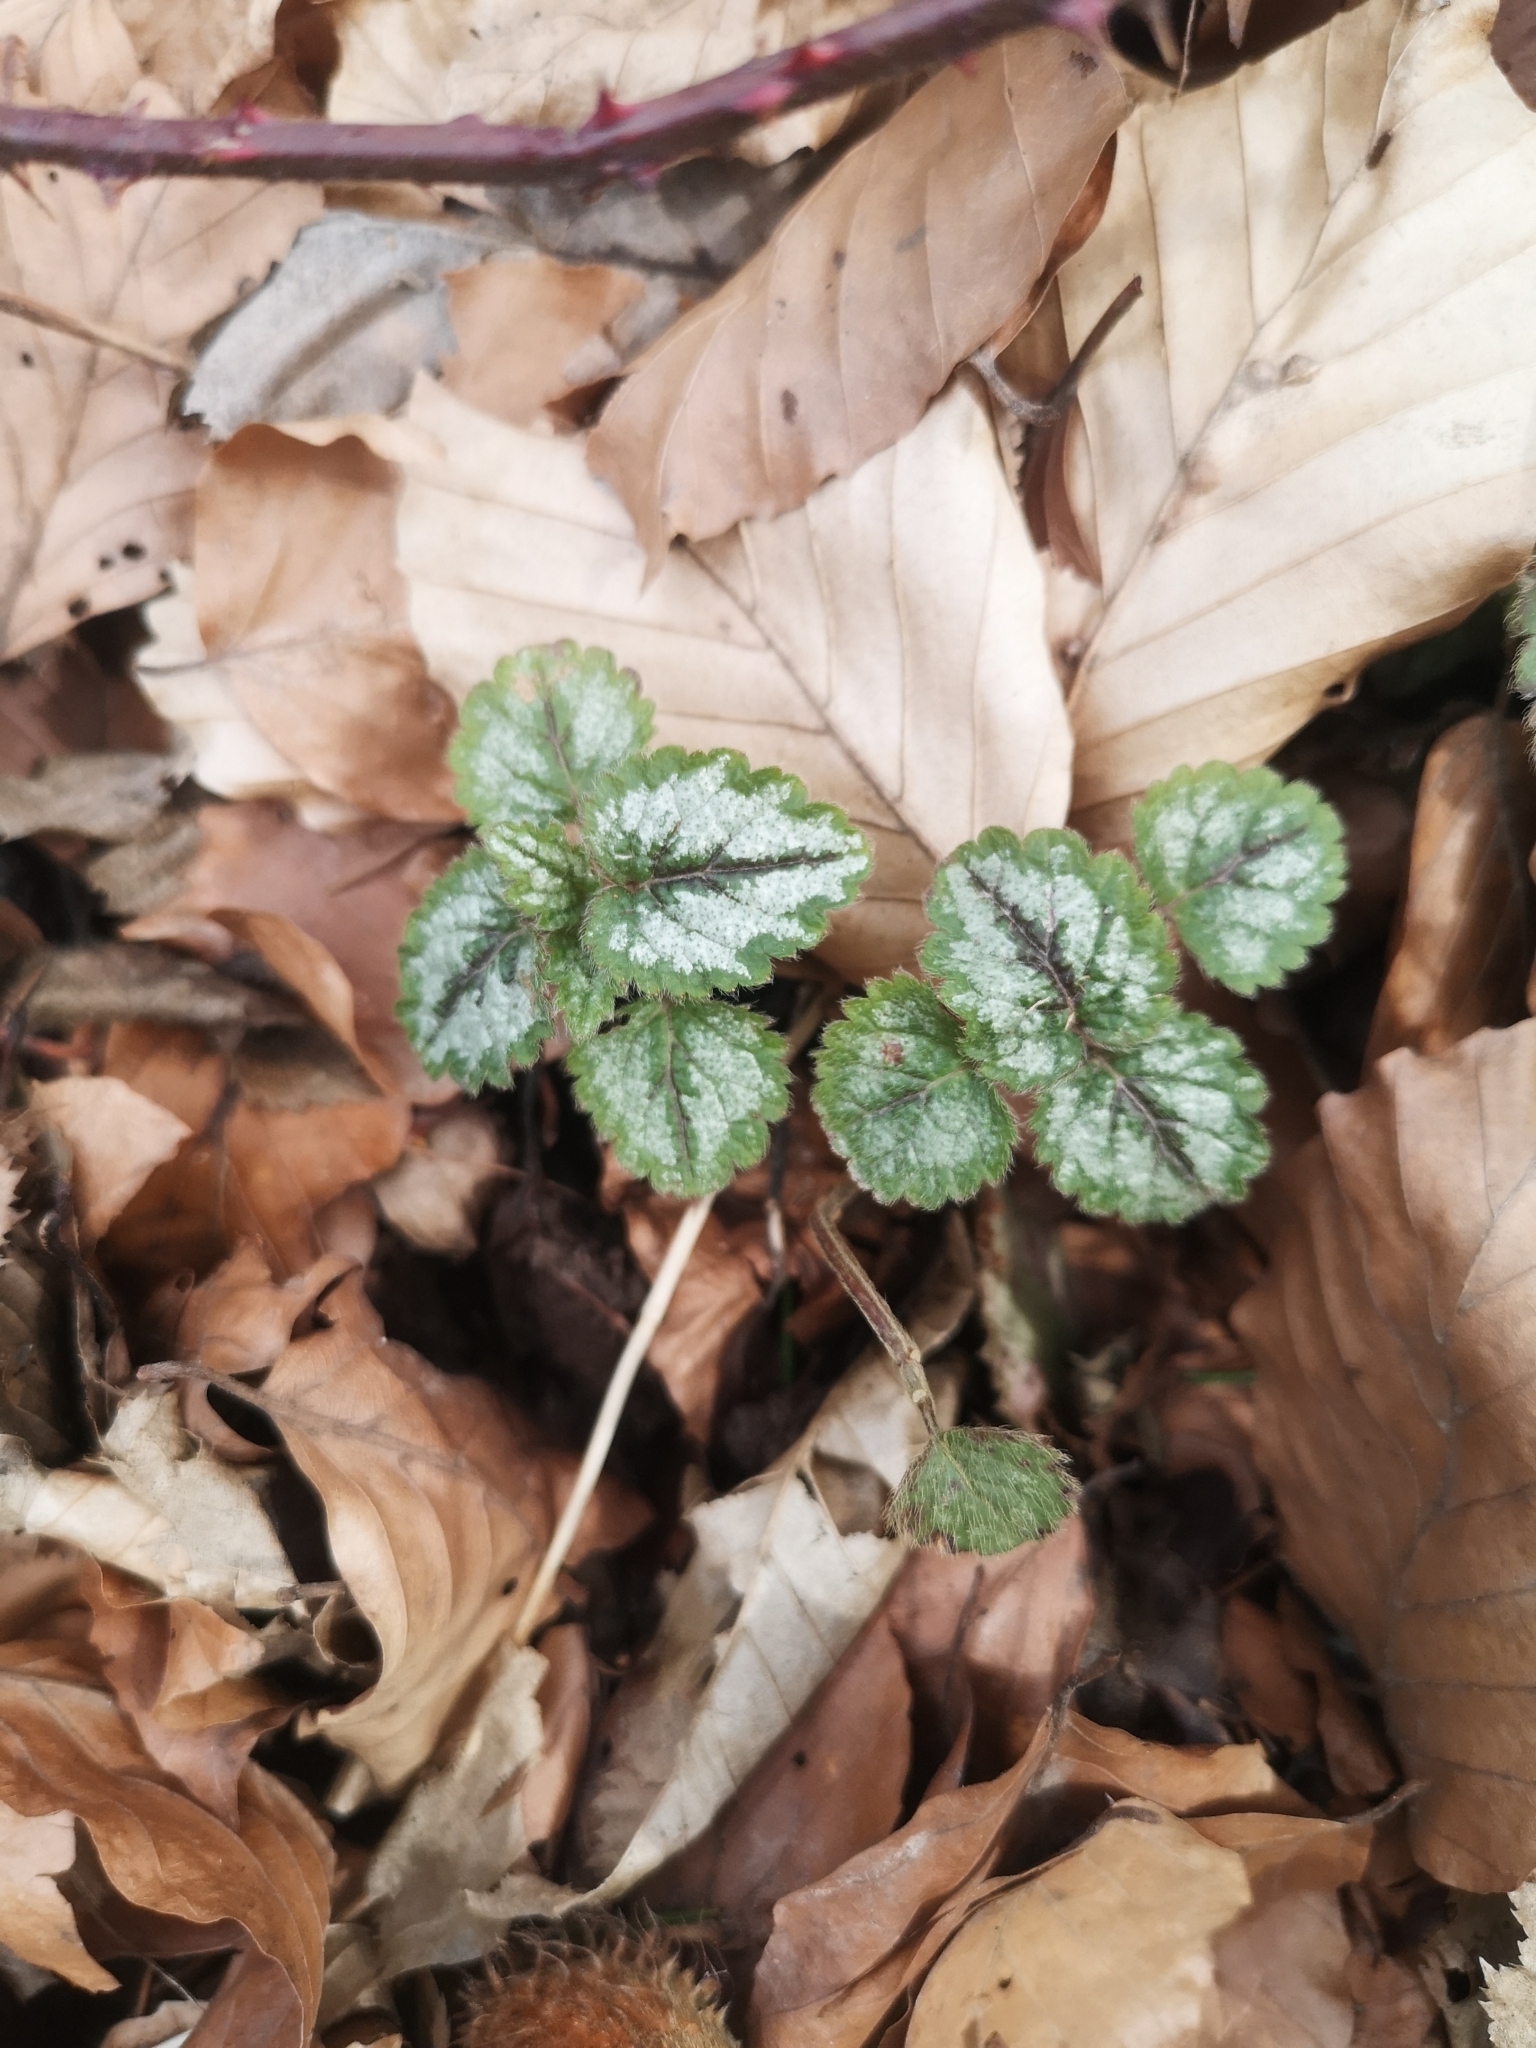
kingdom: Plantae
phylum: Tracheophyta
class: Magnoliopsida
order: Lamiales
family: Lamiaceae
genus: Lamium
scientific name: Lamium galeobdolon
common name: Yellow archangel
